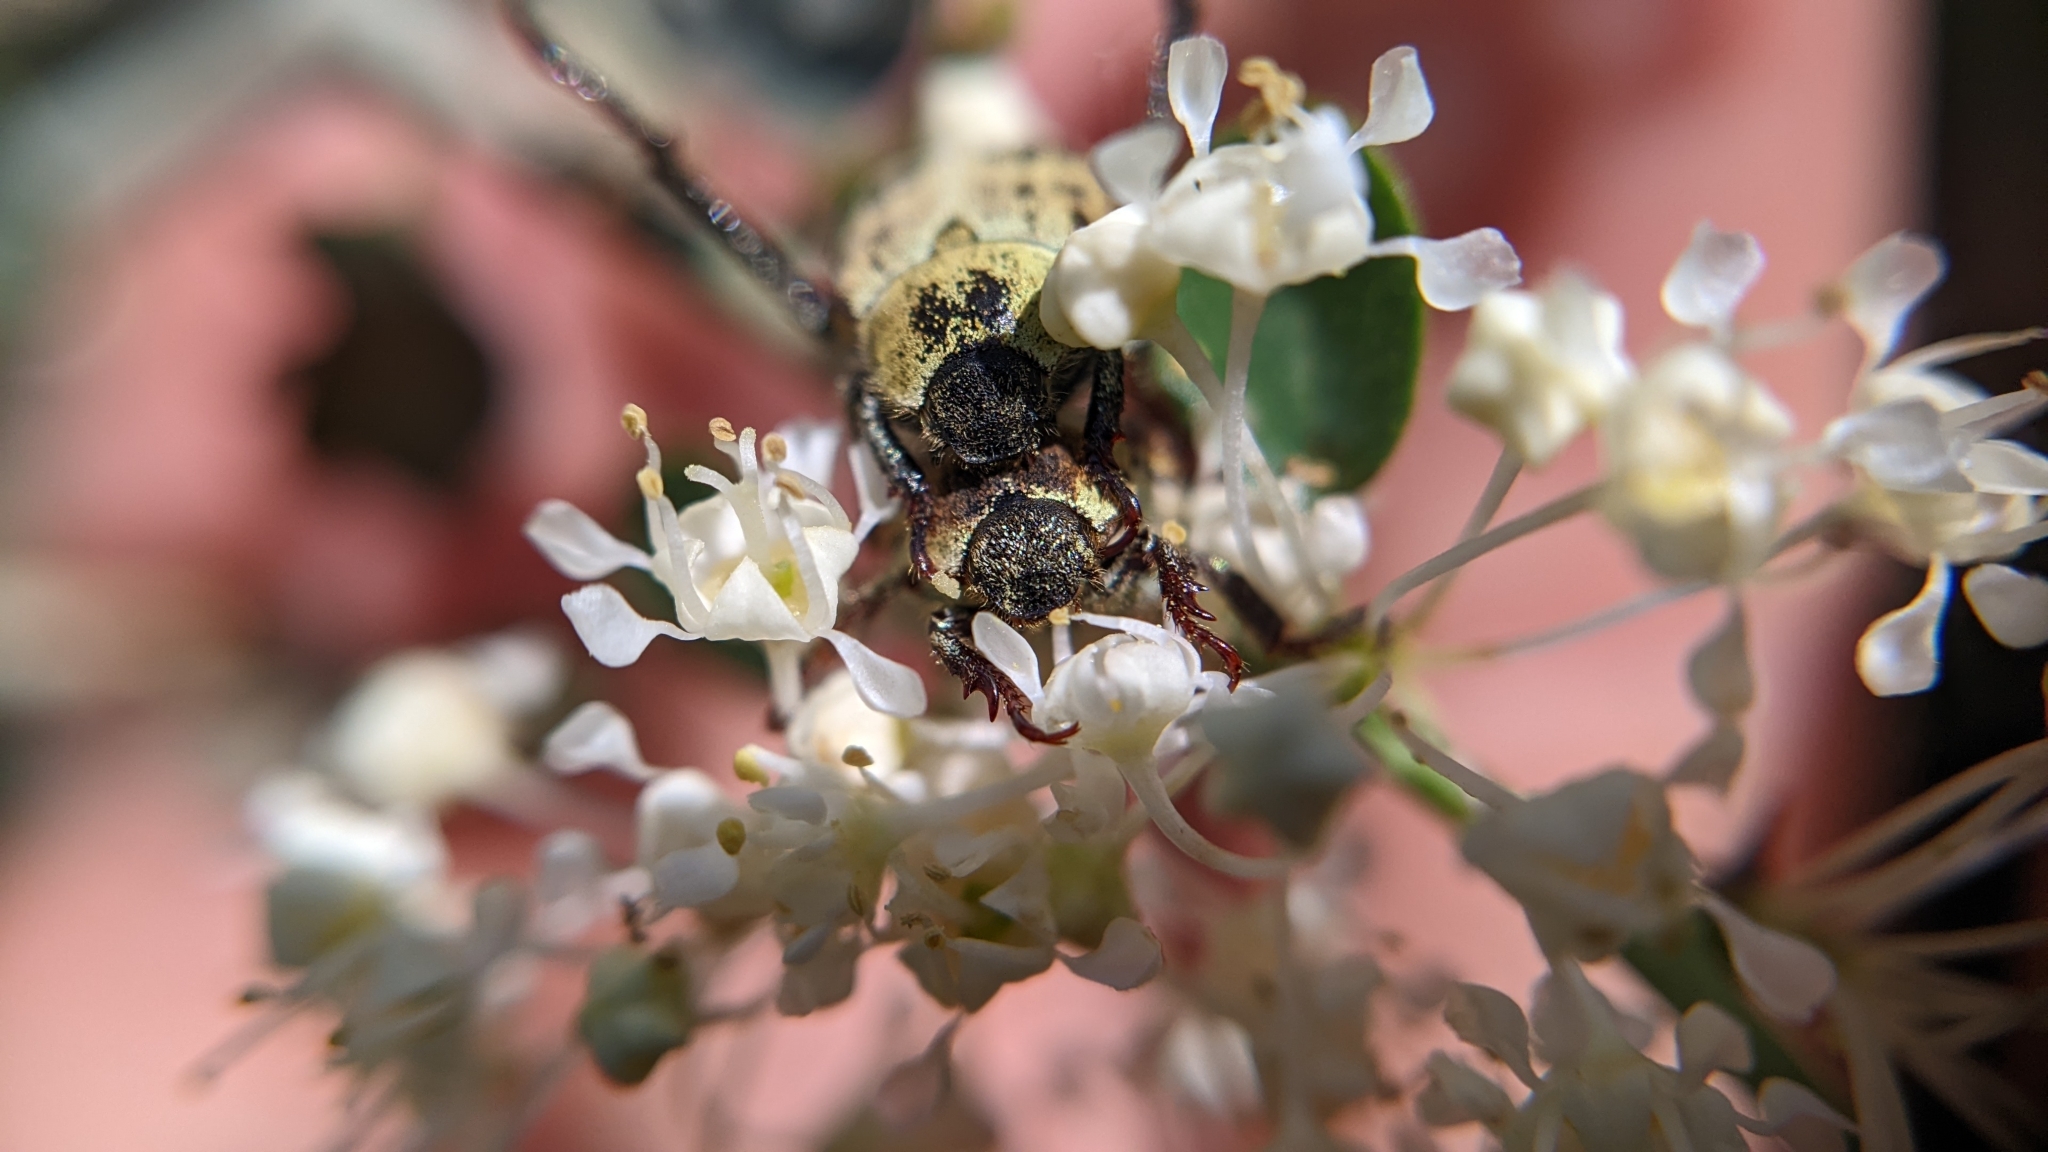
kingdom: Animalia
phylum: Arthropoda
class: Insecta
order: Coleoptera
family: Scarabaeidae
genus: Hoplia
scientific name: Hoplia dispar
